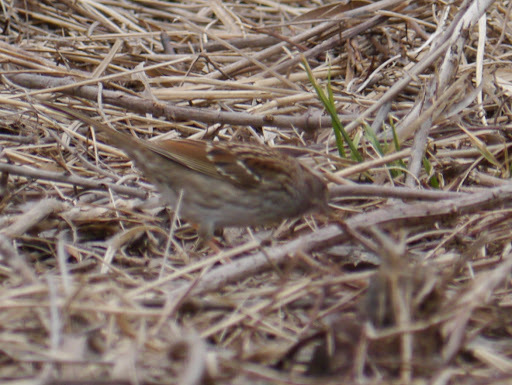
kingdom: Animalia
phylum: Chordata
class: Aves
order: Passeriformes
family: Passerellidae
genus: Melospiza
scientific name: Melospiza melodia
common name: Song sparrow
